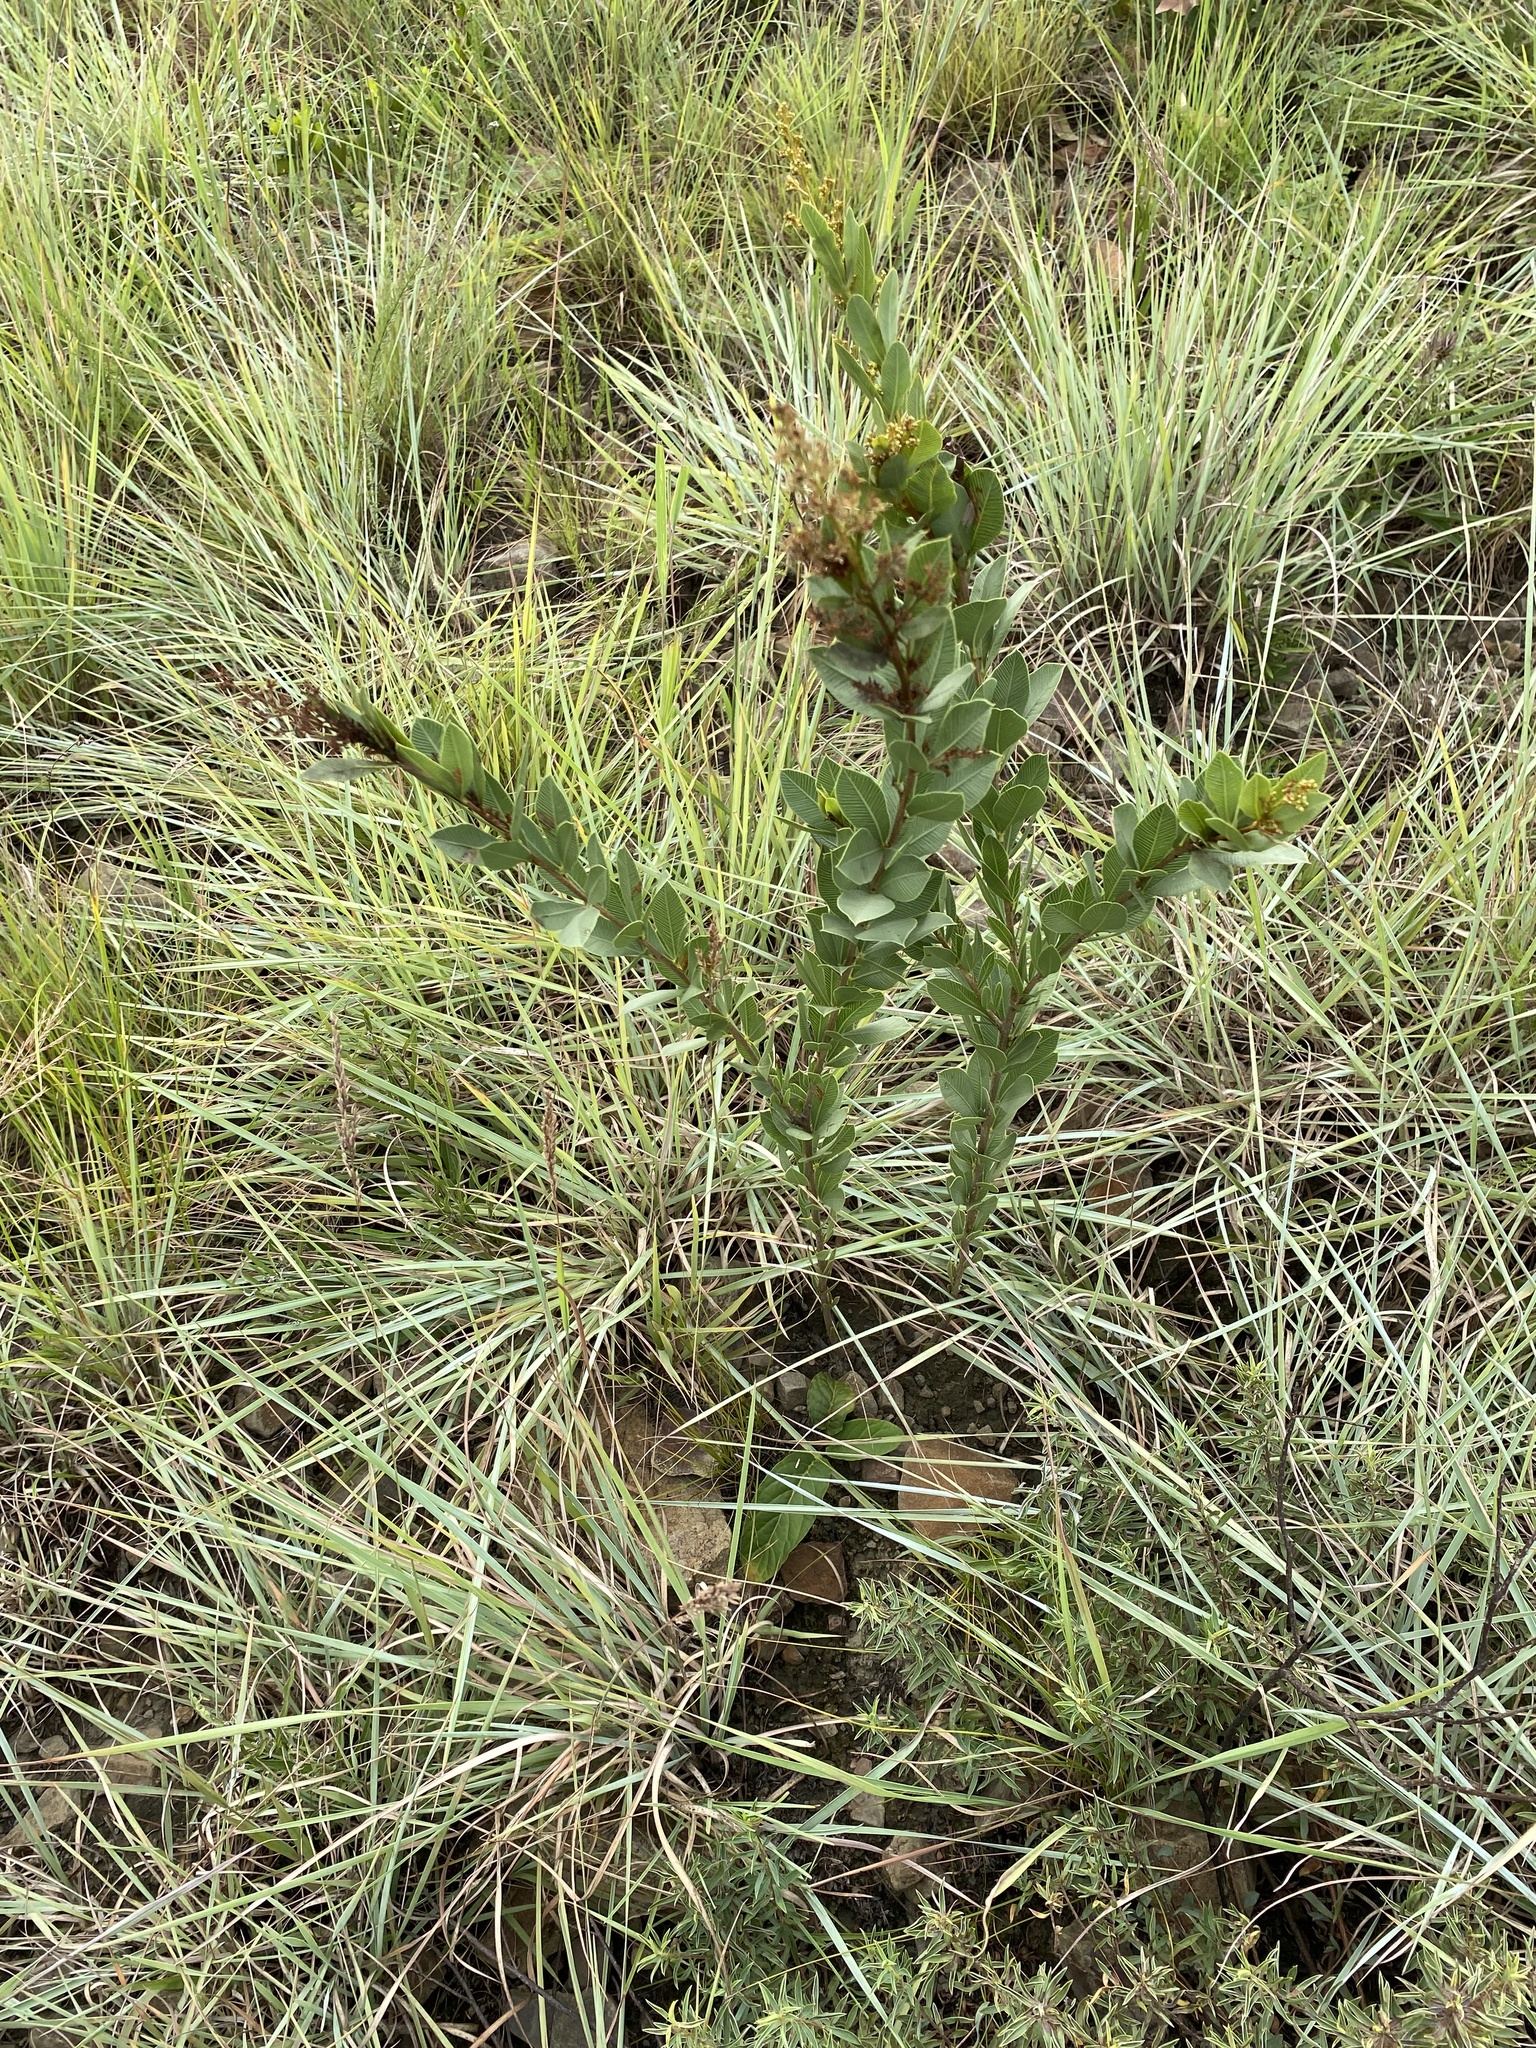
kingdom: Plantae
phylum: Tracheophyta
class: Magnoliopsida
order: Sapindales
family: Anacardiaceae
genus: Searsia
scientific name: Searsia pondoensis
